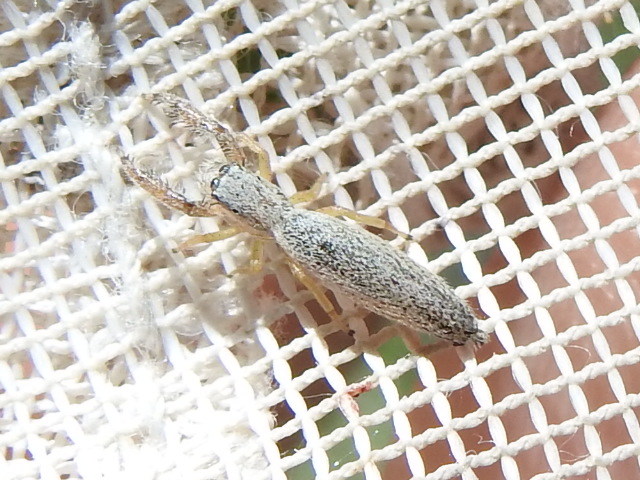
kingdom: Animalia
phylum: Arthropoda
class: Arachnida
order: Araneae
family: Salticidae
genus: Marpissa
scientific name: Marpissa pikei
